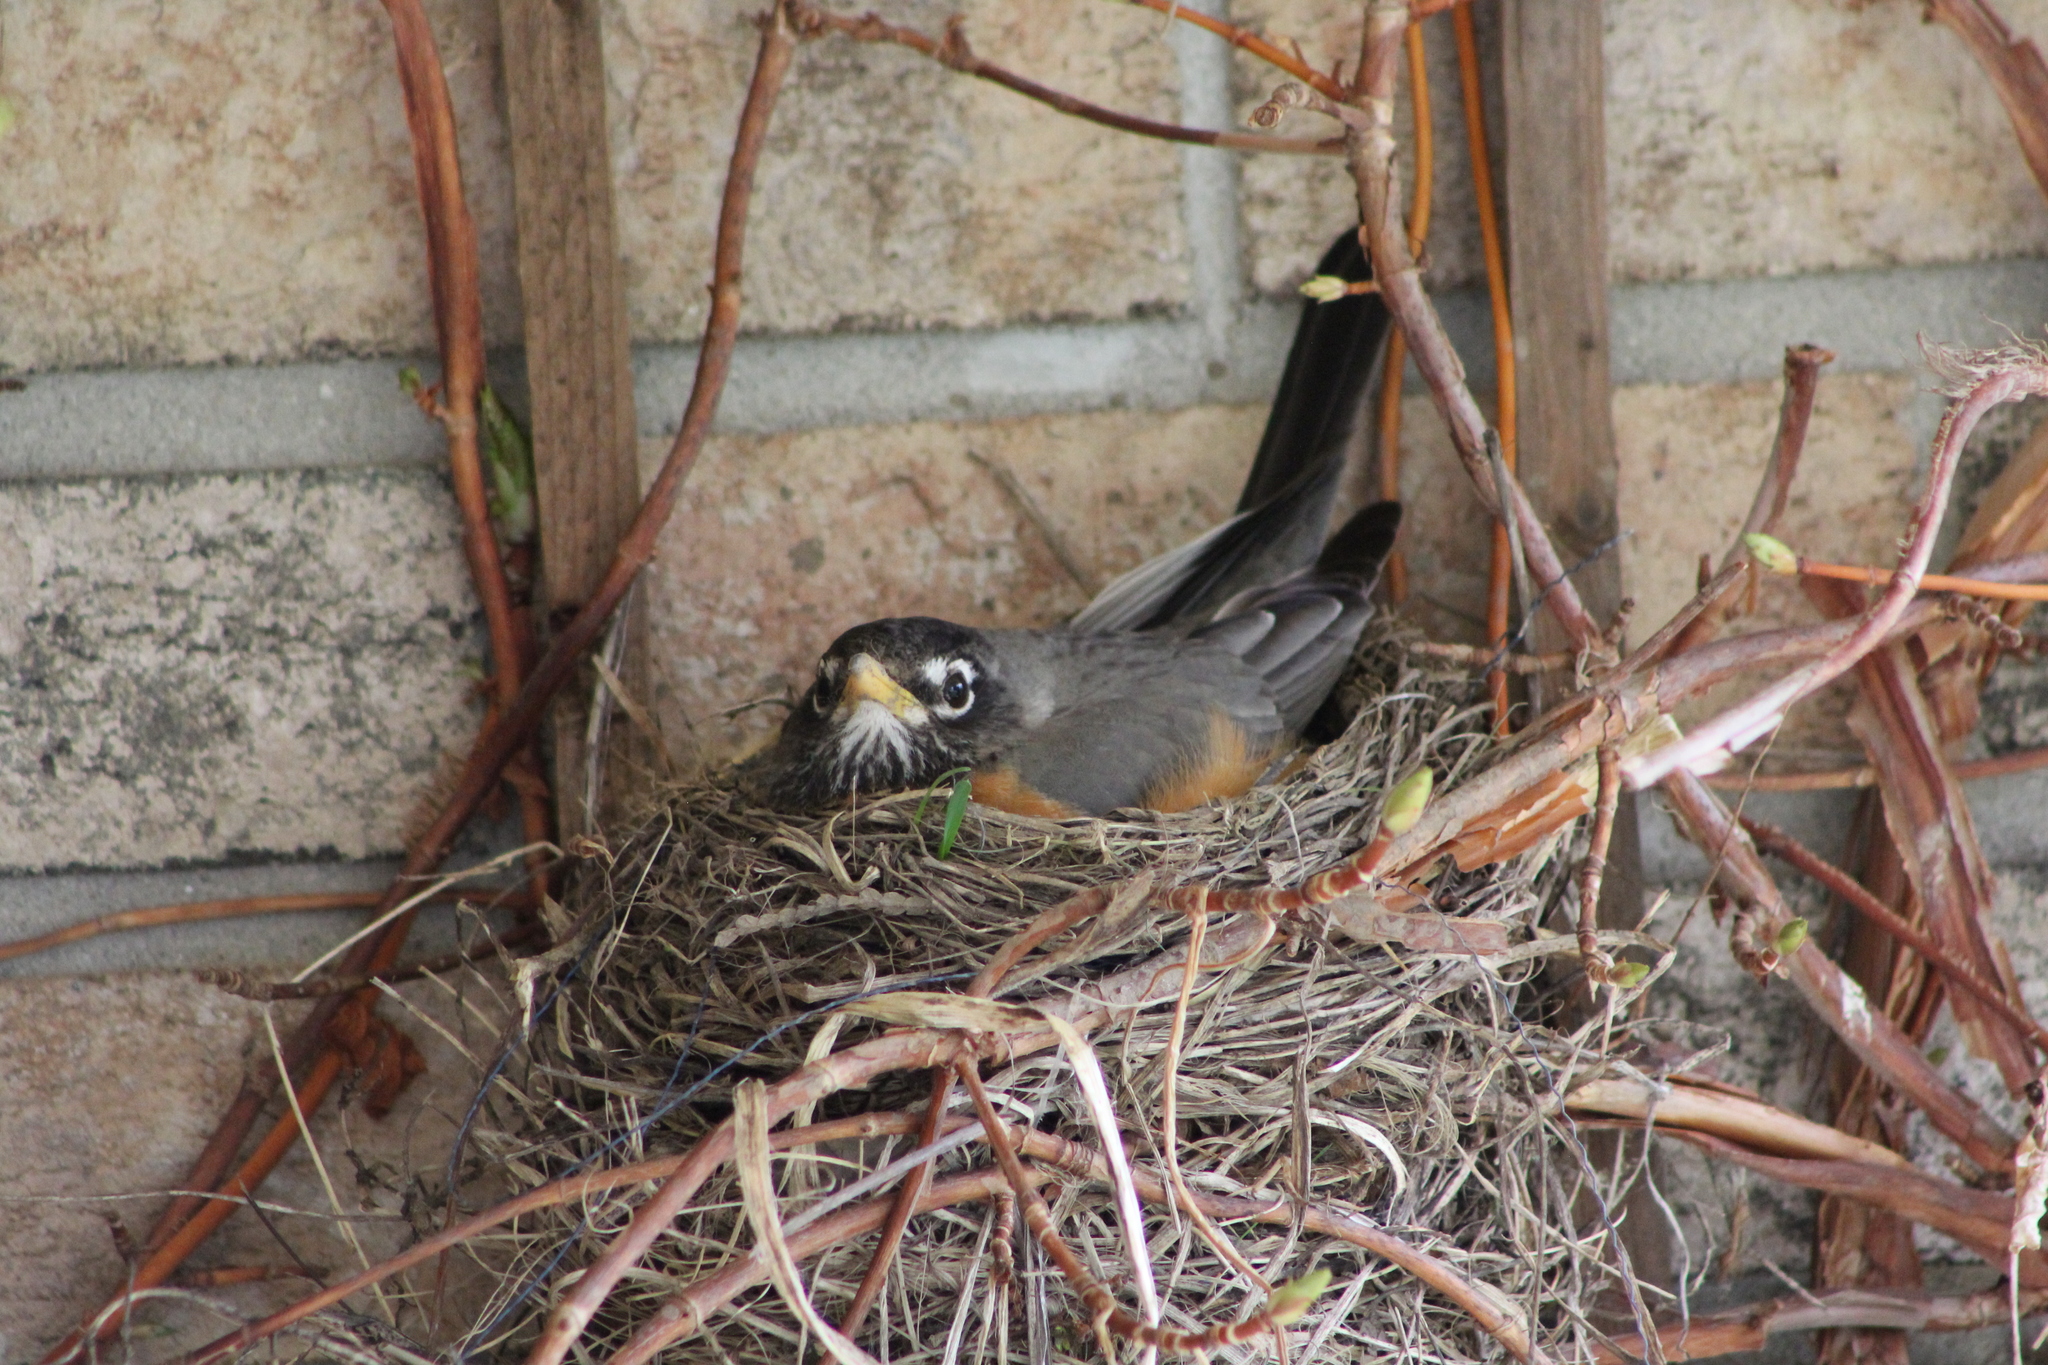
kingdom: Animalia
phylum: Chordata
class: Aves
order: Passeriformes
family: Turdidae
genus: Turdus
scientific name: Turdus migratorius
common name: American robin
